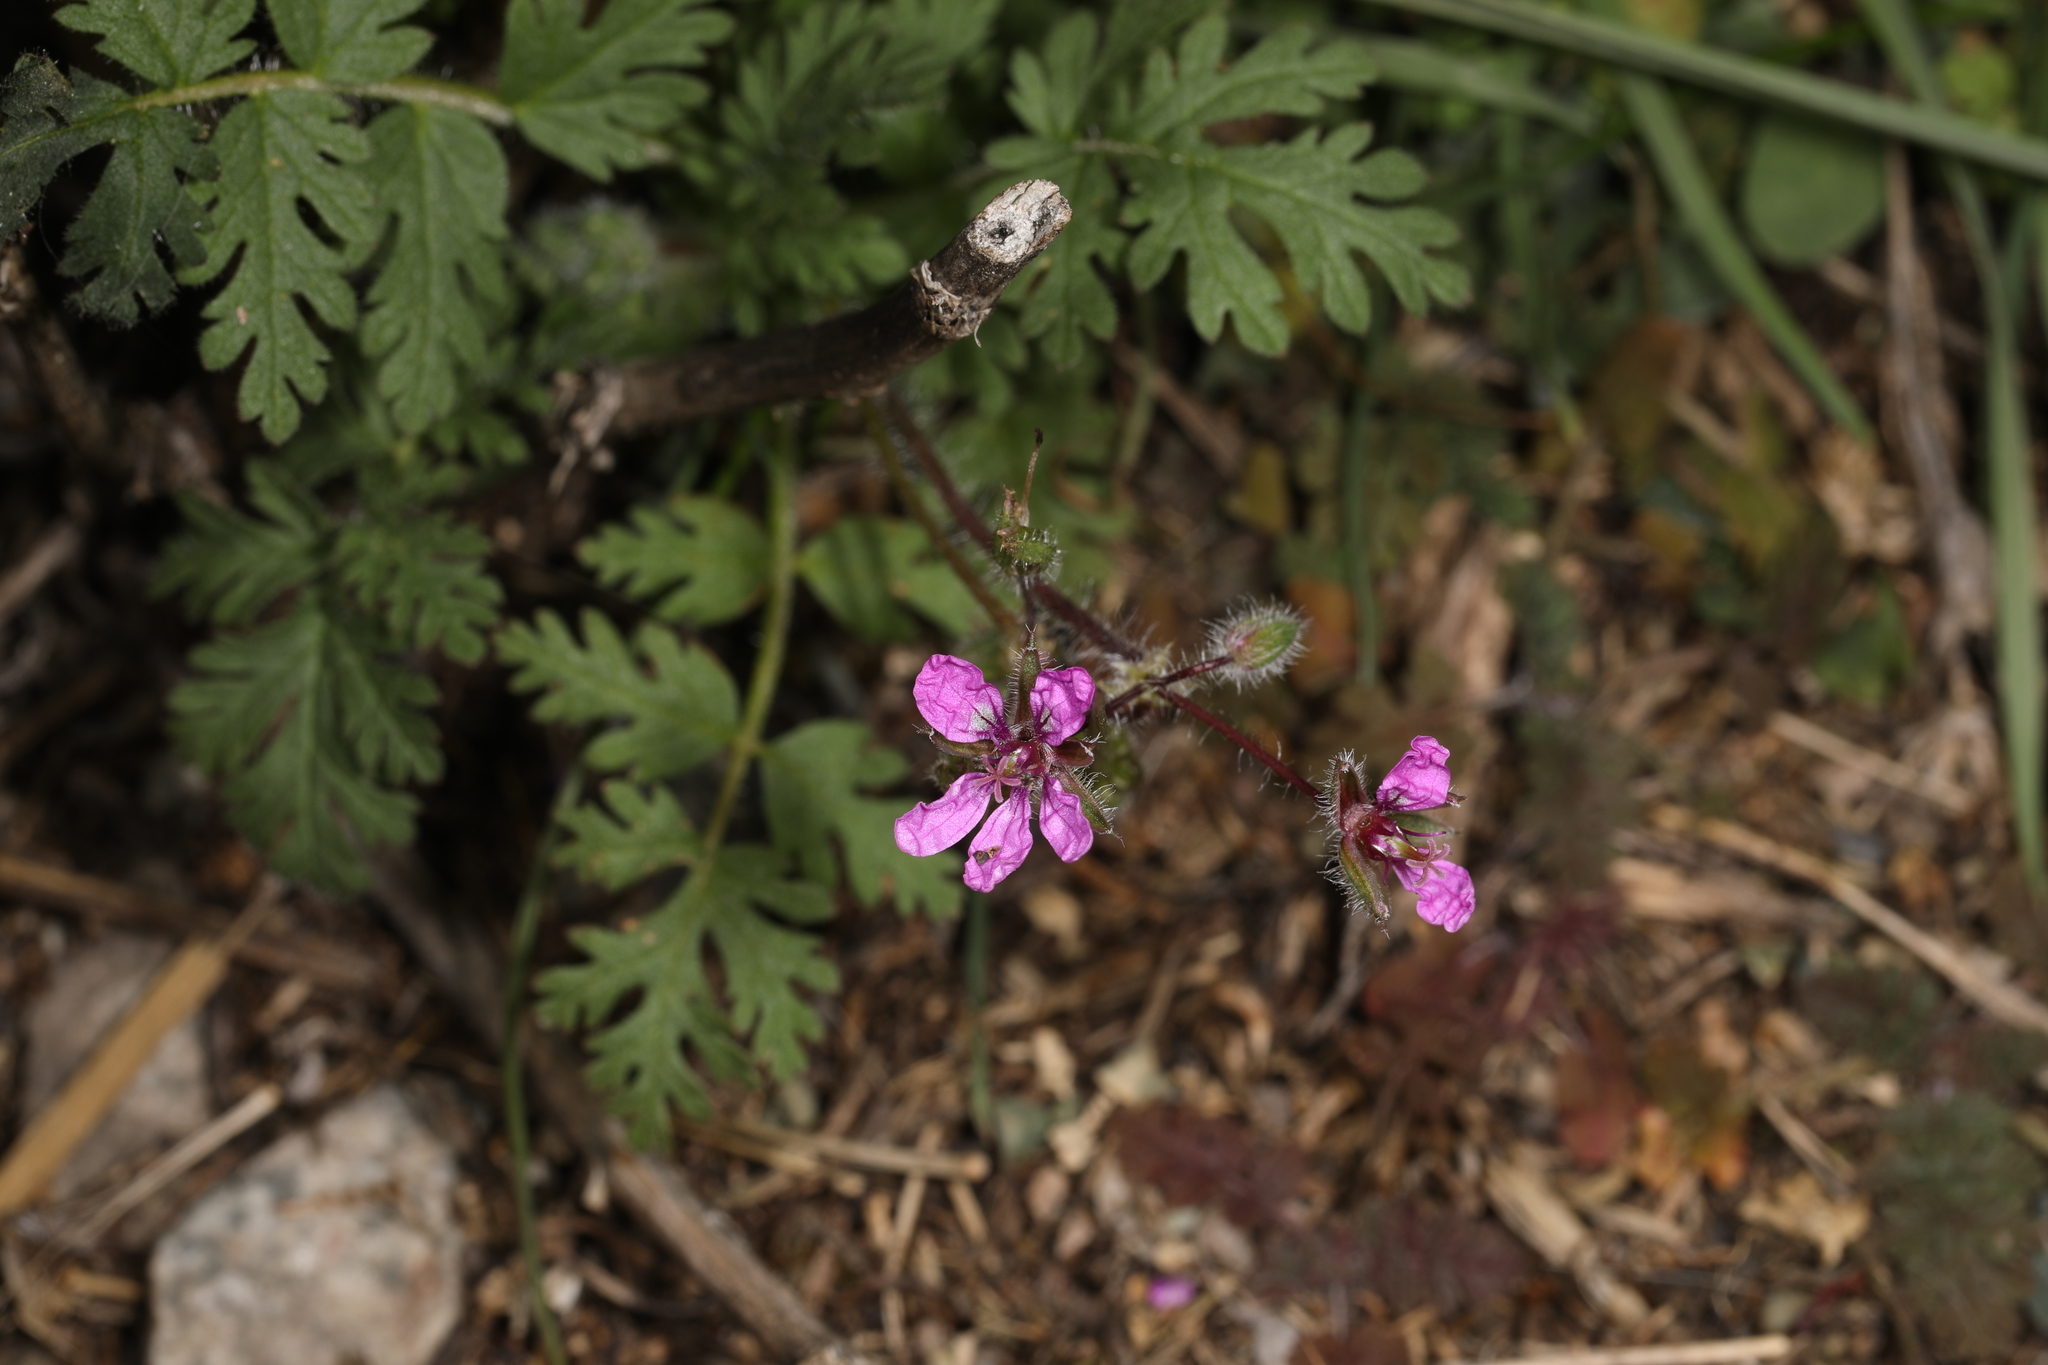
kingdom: Plantae
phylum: Tracheophyta
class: Magnoliopsida
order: Geraniales
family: Geraniaceae
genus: Erodium
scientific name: Erodium cicutarium
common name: Common stork's-bill
